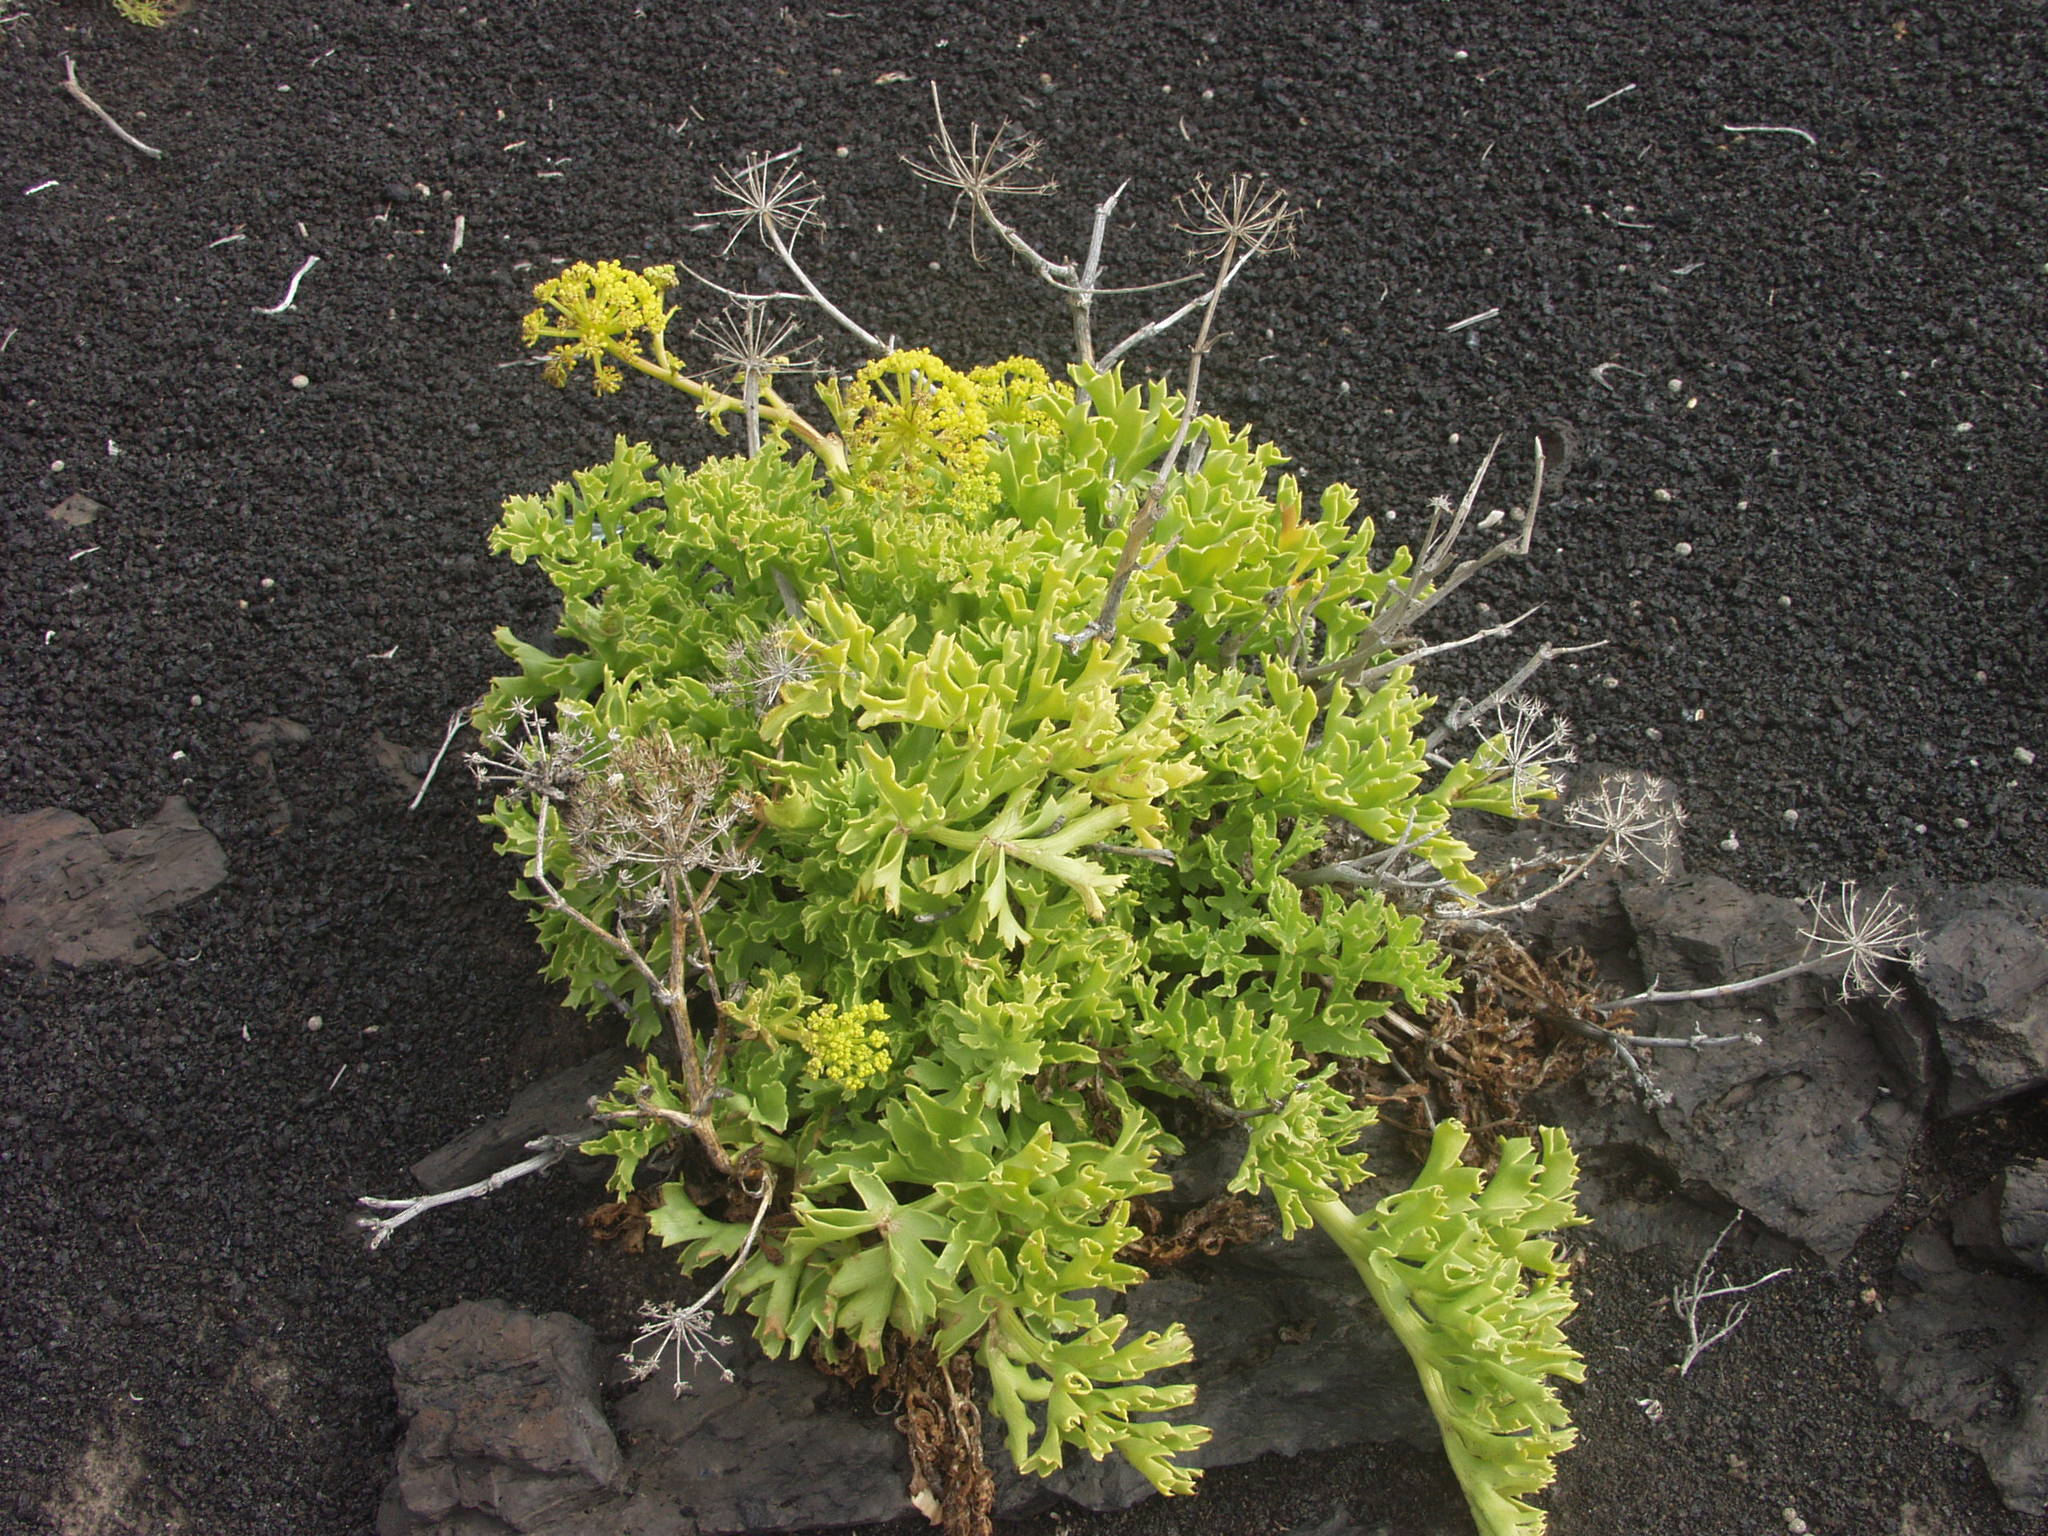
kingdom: Plantae
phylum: Tracheophyta
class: Magnoliopsida
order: Apiales
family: Apiaceae
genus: Astydamia
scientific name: Astydamia latifolia
